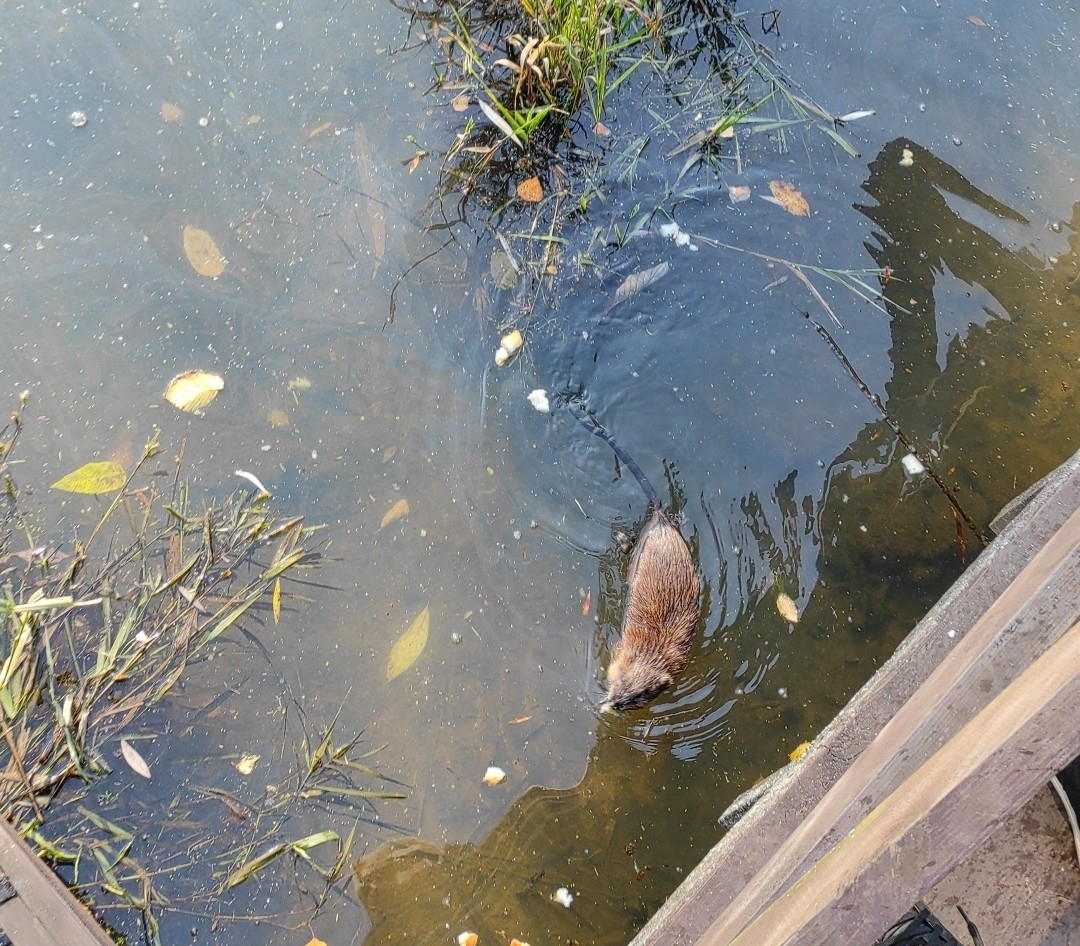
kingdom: Animalia
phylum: Chordata
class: Mammalia
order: Rodentia
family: Cricetidae
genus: Ondatra
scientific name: Ondatra zibethicus
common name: Muskrat
